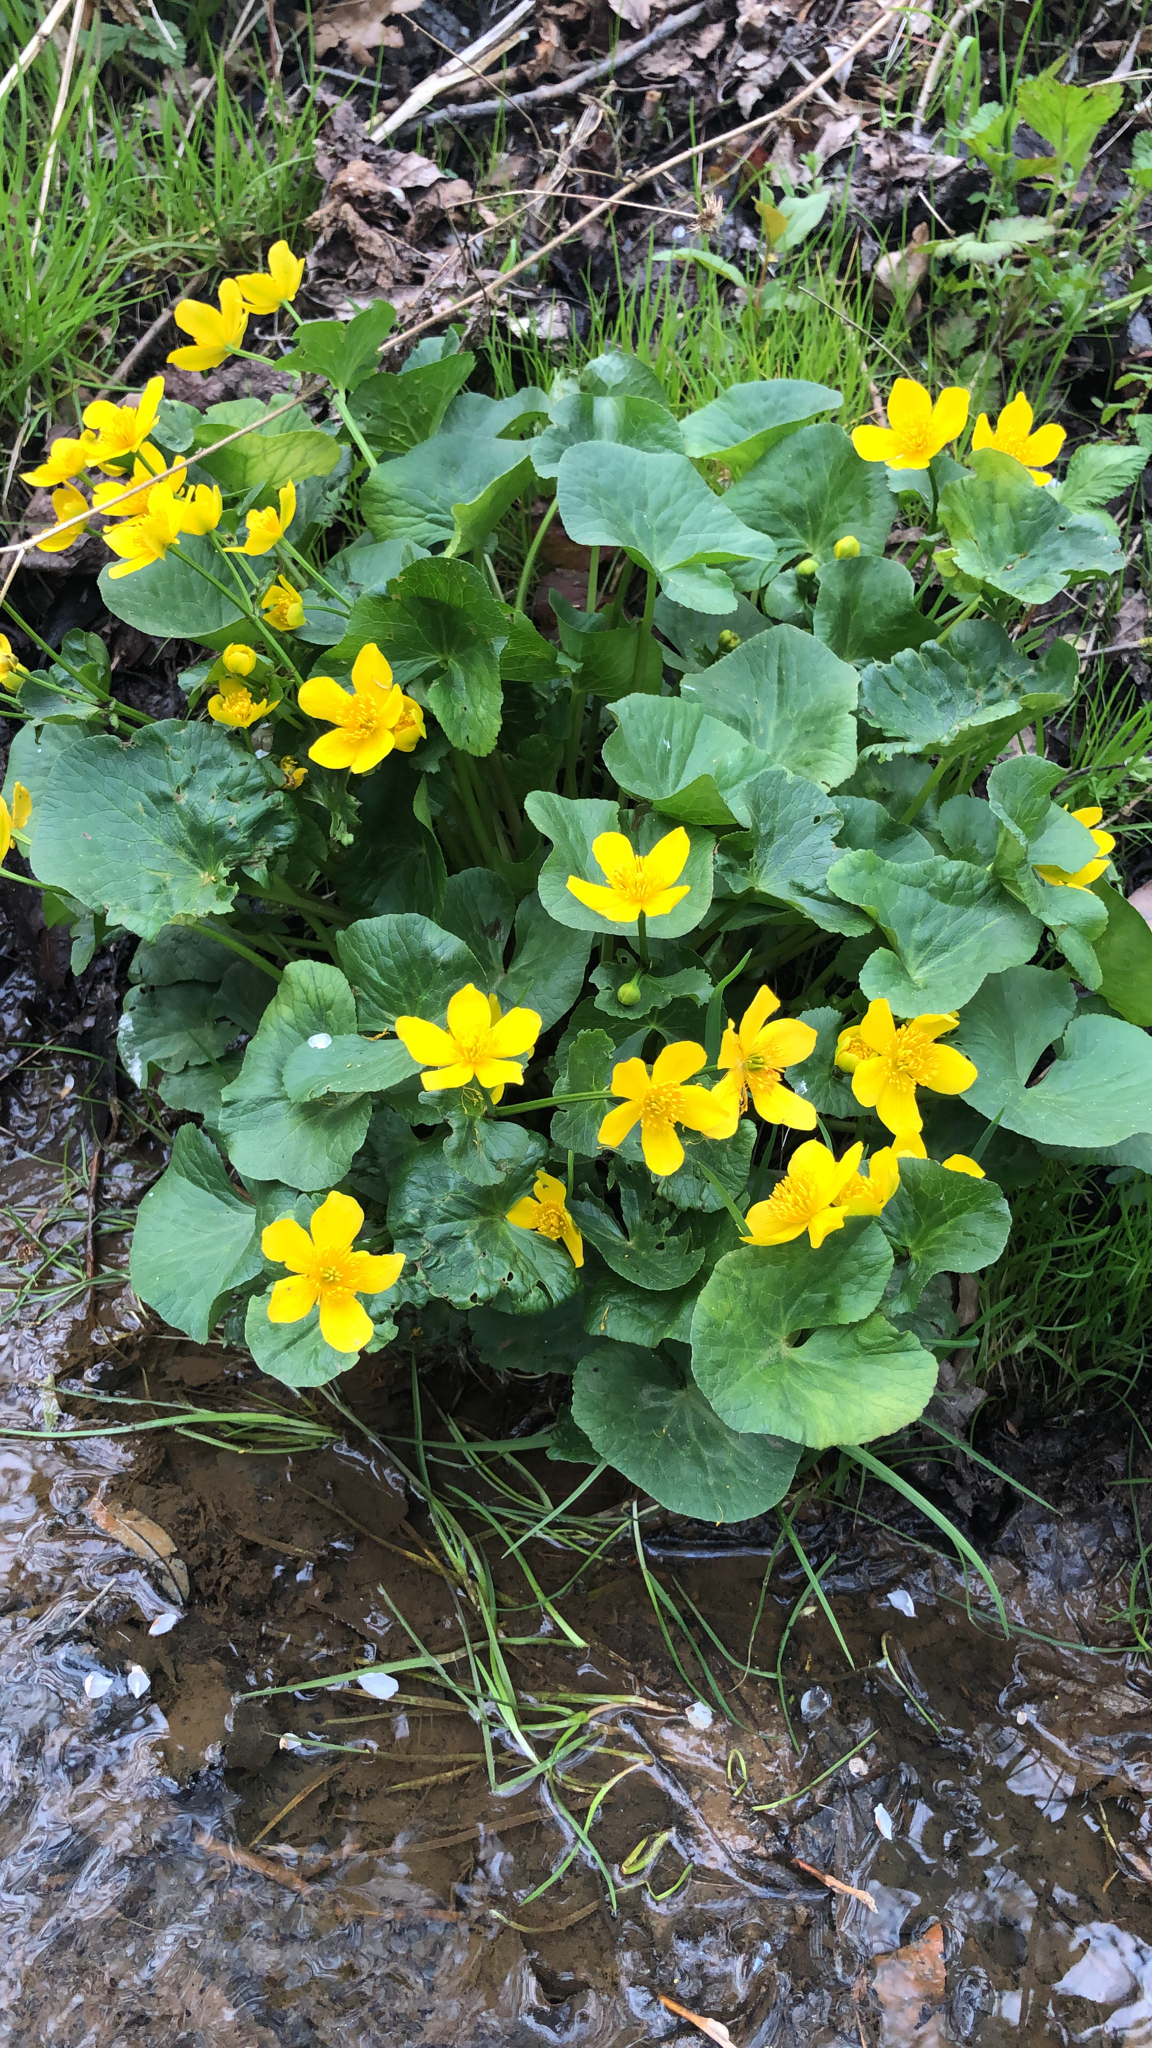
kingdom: Plantae
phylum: Tracheophyta
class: Magnoliopsida
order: Ranunculales
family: Ranunculaceae
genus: Caltha
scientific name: Caltha palustris
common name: Marsh marigold
